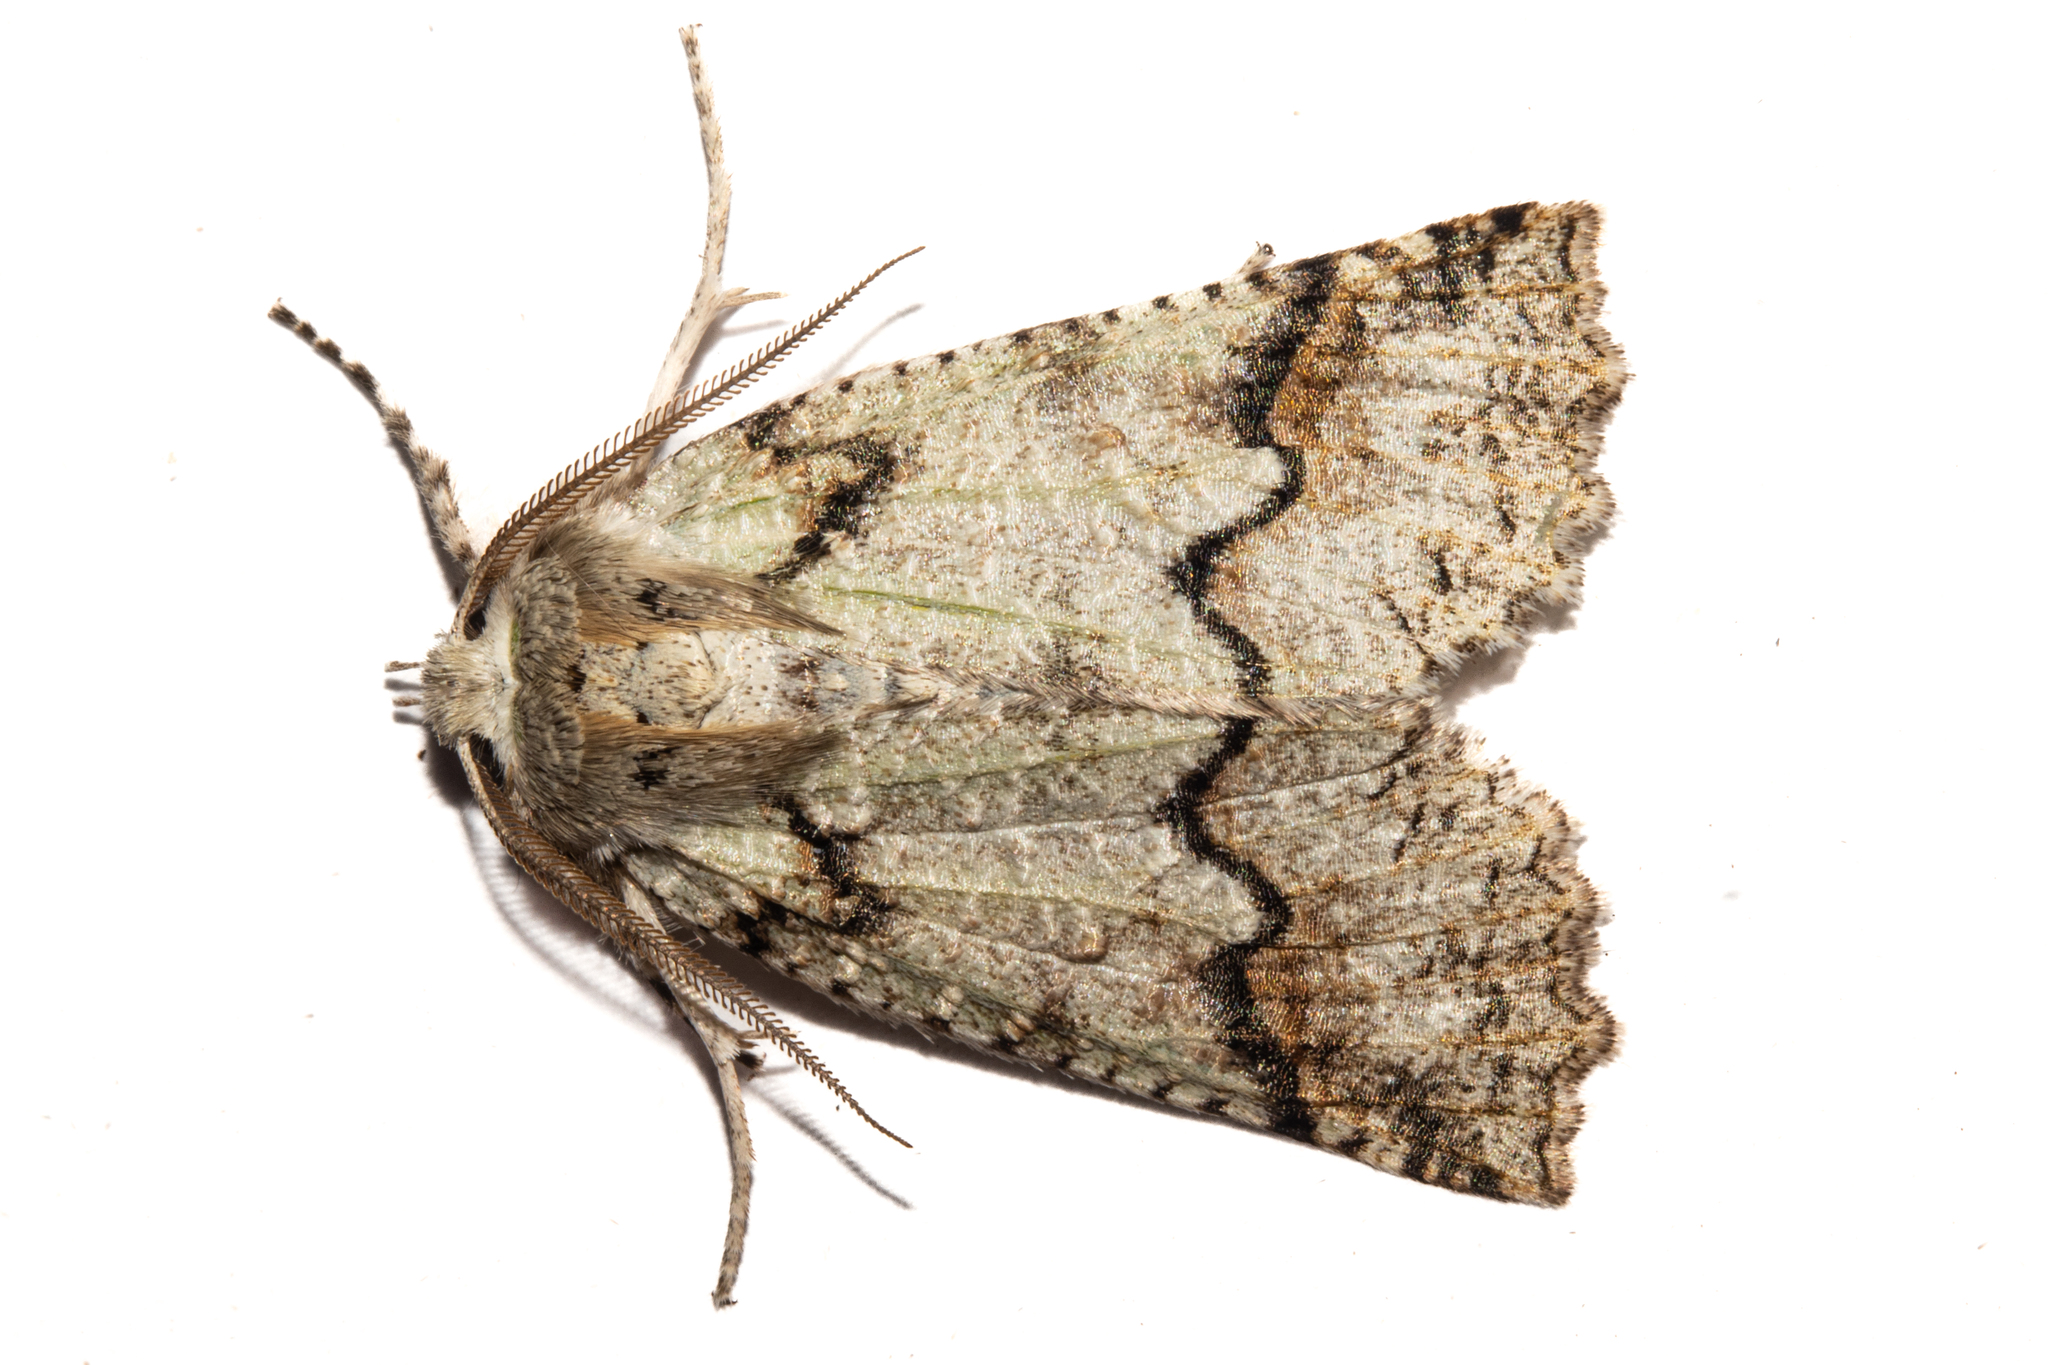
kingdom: Animalia
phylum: Arthropoda
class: Insecta
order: Lepidoptera
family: Geometridae
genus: Declana
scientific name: Declana floccosa
